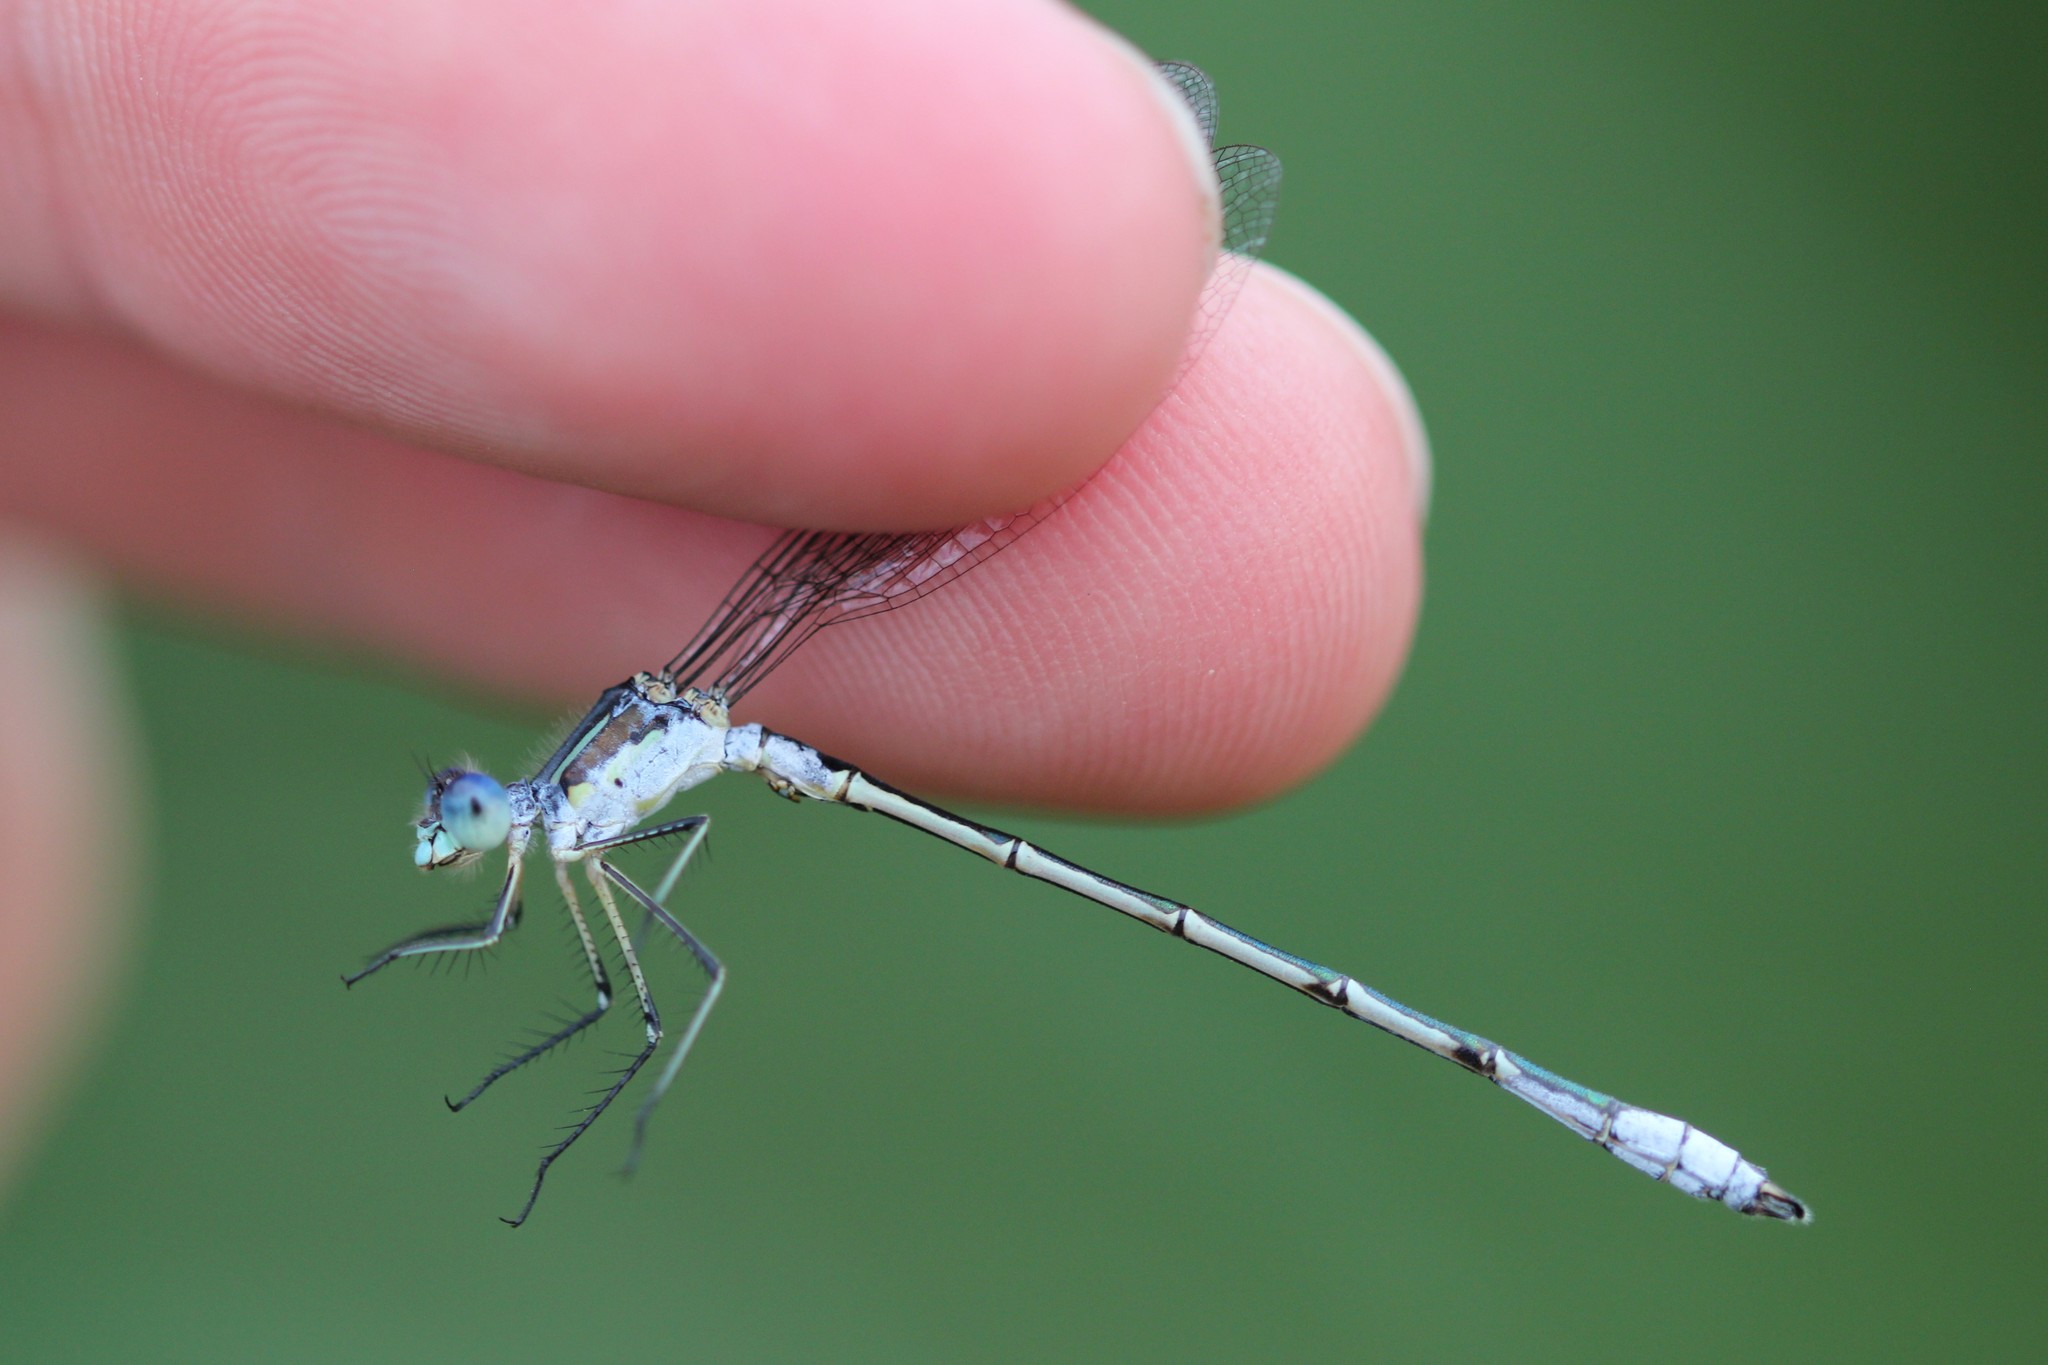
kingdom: Animalia
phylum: Arthropoda
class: Insecta
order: Odonata
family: Lestidae
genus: Lestes
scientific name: Lestes unguiculatus
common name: Lyre-tipped spreadwing
